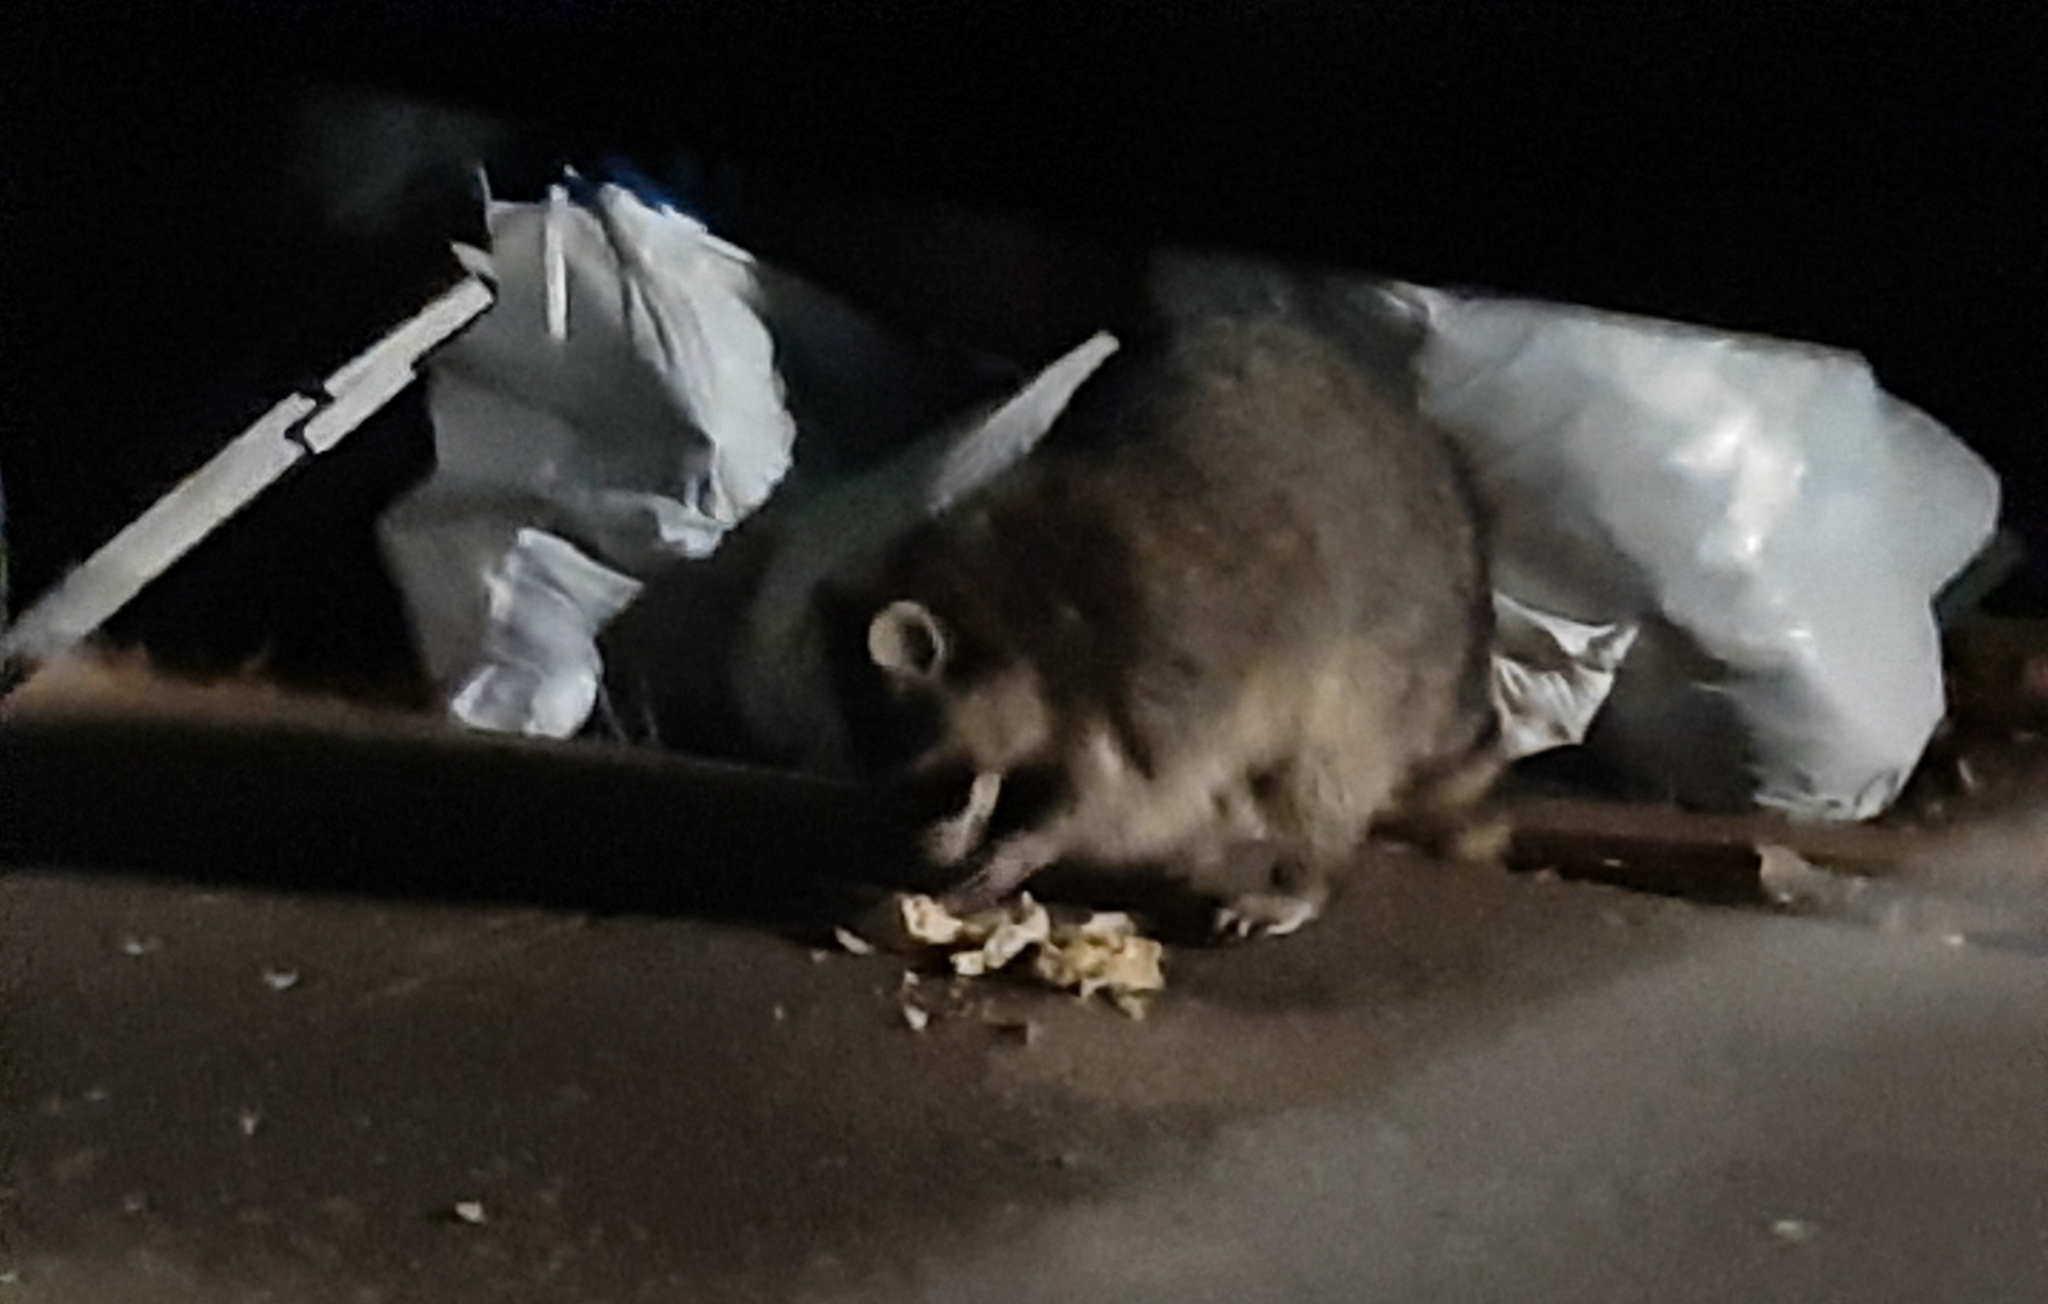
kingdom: Animalia
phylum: Chordata
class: Mammalia
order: Carnivora
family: Procyonidae
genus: Procyon
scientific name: Procyon lotor
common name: Raccoon
